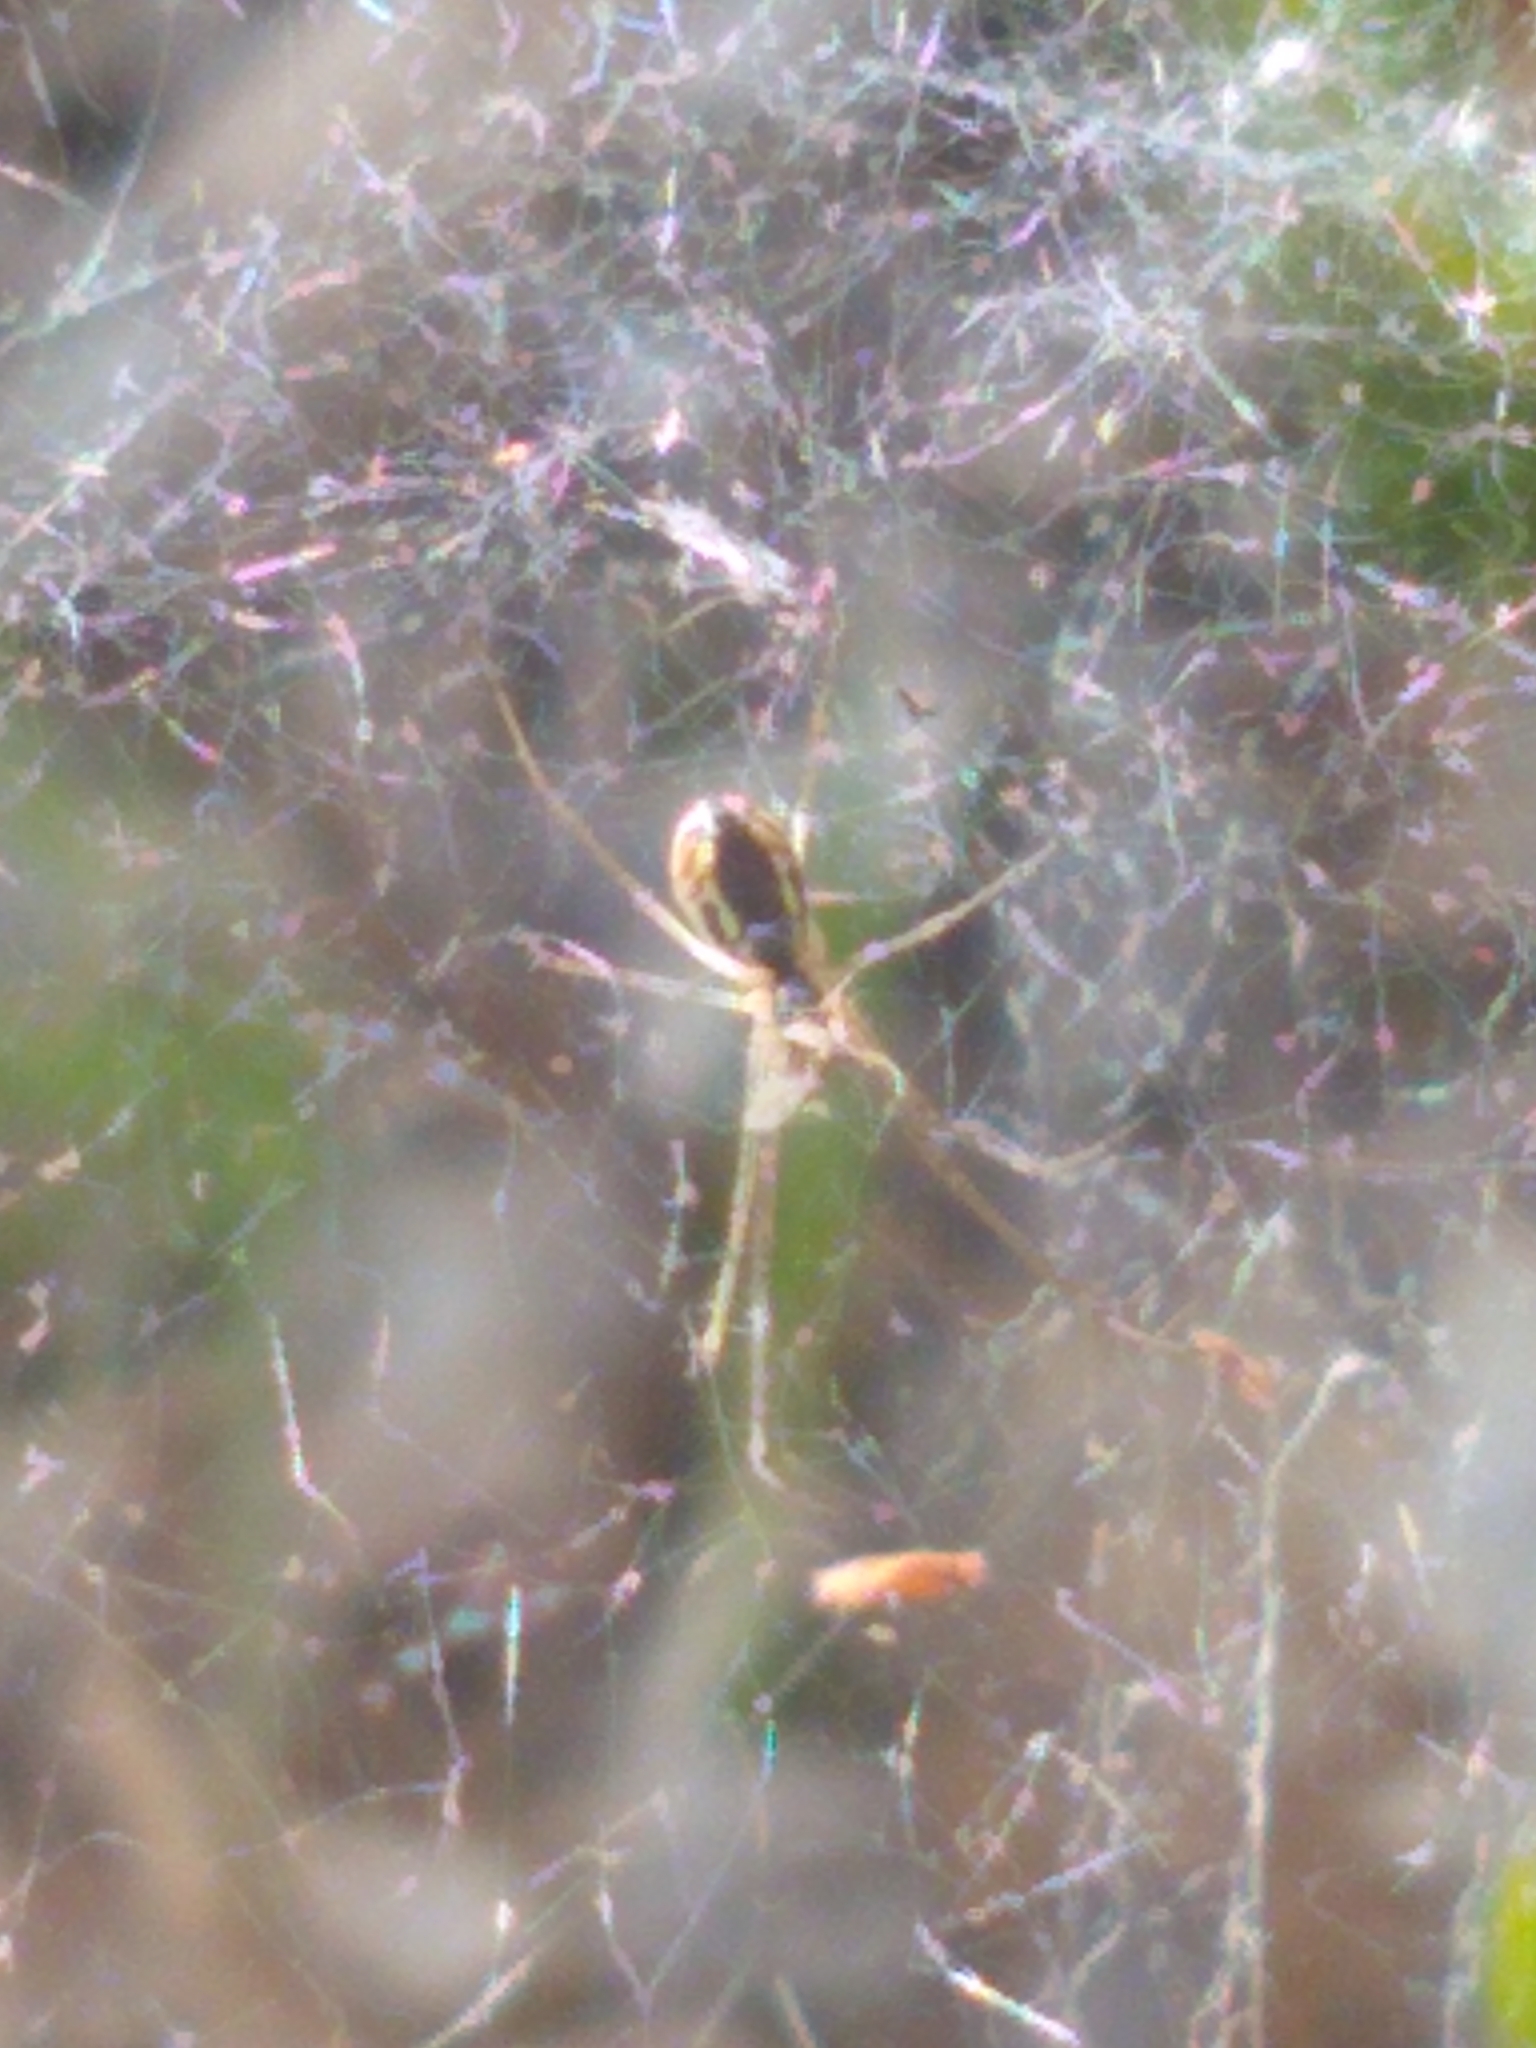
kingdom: Animalia
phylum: Arthropoda
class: Arachnida
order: Araneae
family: Linyphiidae
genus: Neriene
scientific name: Neriene radiata
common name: Filmy dome spider
